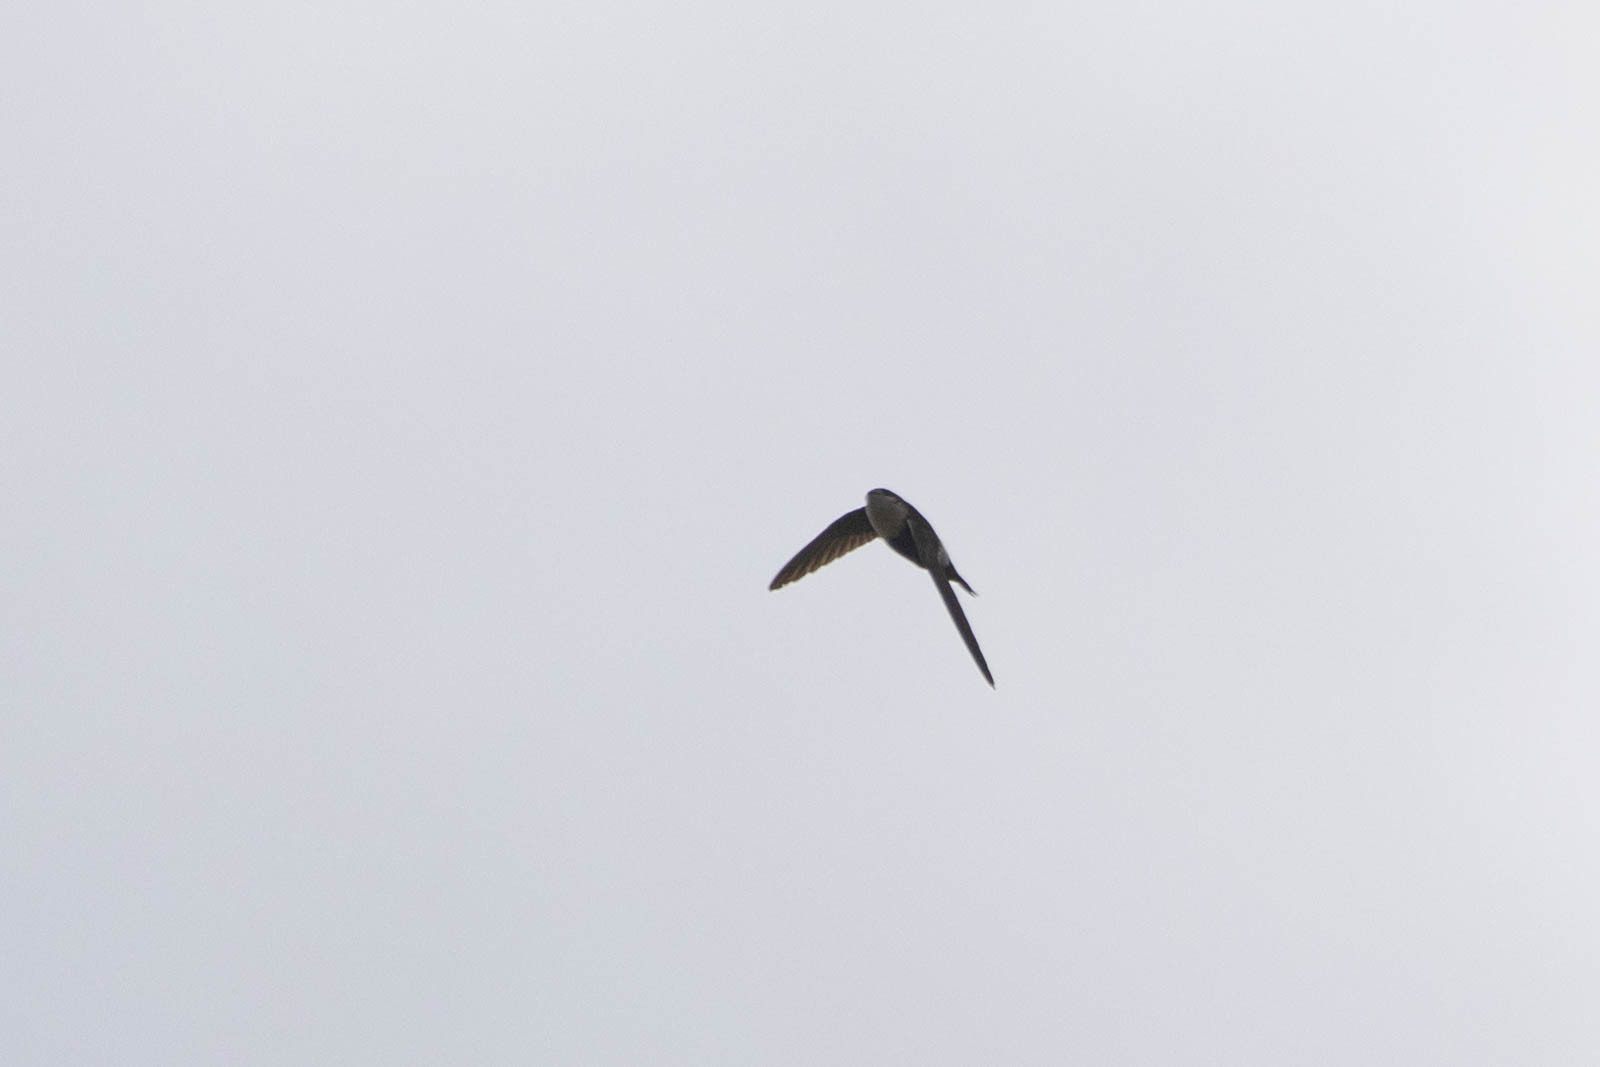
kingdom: Animalia
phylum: Chordata
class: Aves
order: Apodiformes
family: Apodidae
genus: Aeronautes
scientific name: Aeronautes saxatalis
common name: White-throated swift
